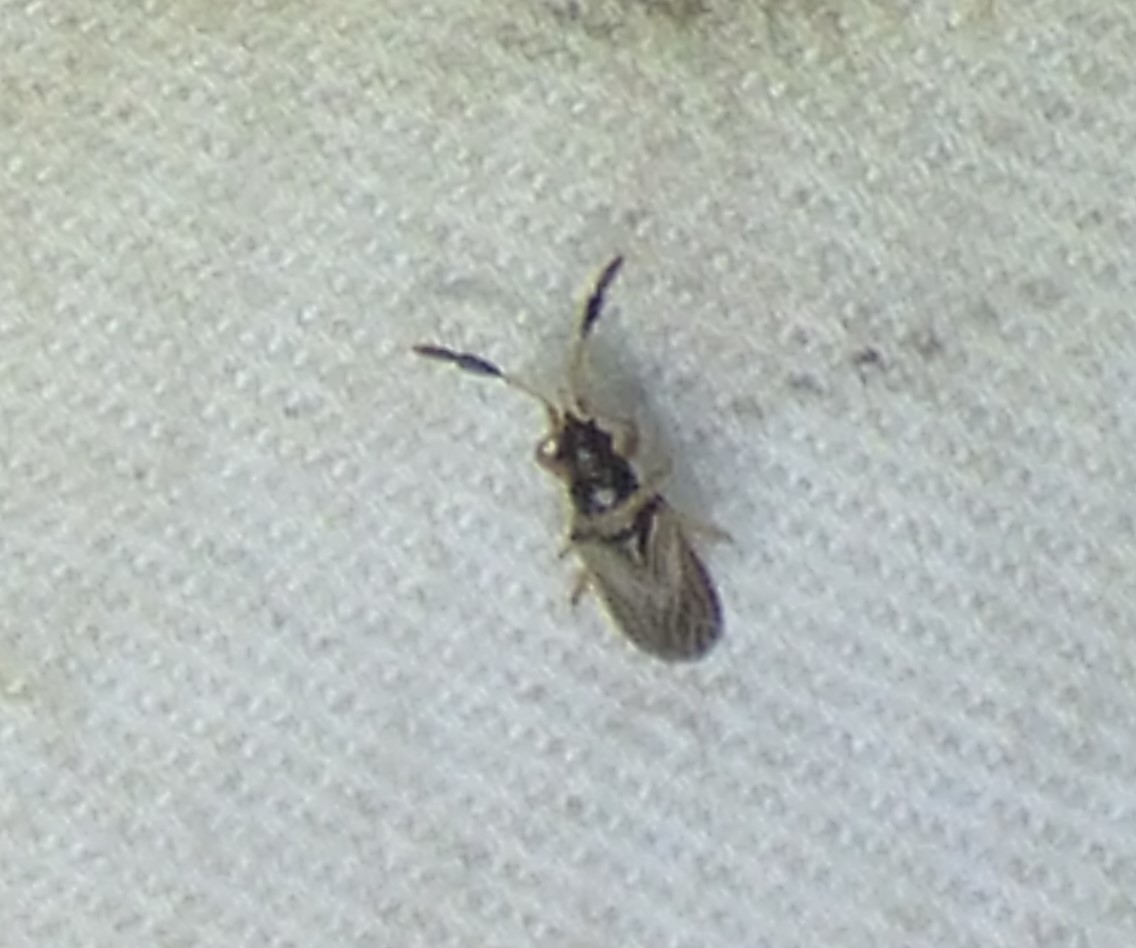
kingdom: Animalia
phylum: Arthropoda
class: Insecta
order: Hemiptera
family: Rhyparochromidae
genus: Ptochiomera
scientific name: Ptochiomera nodosa
